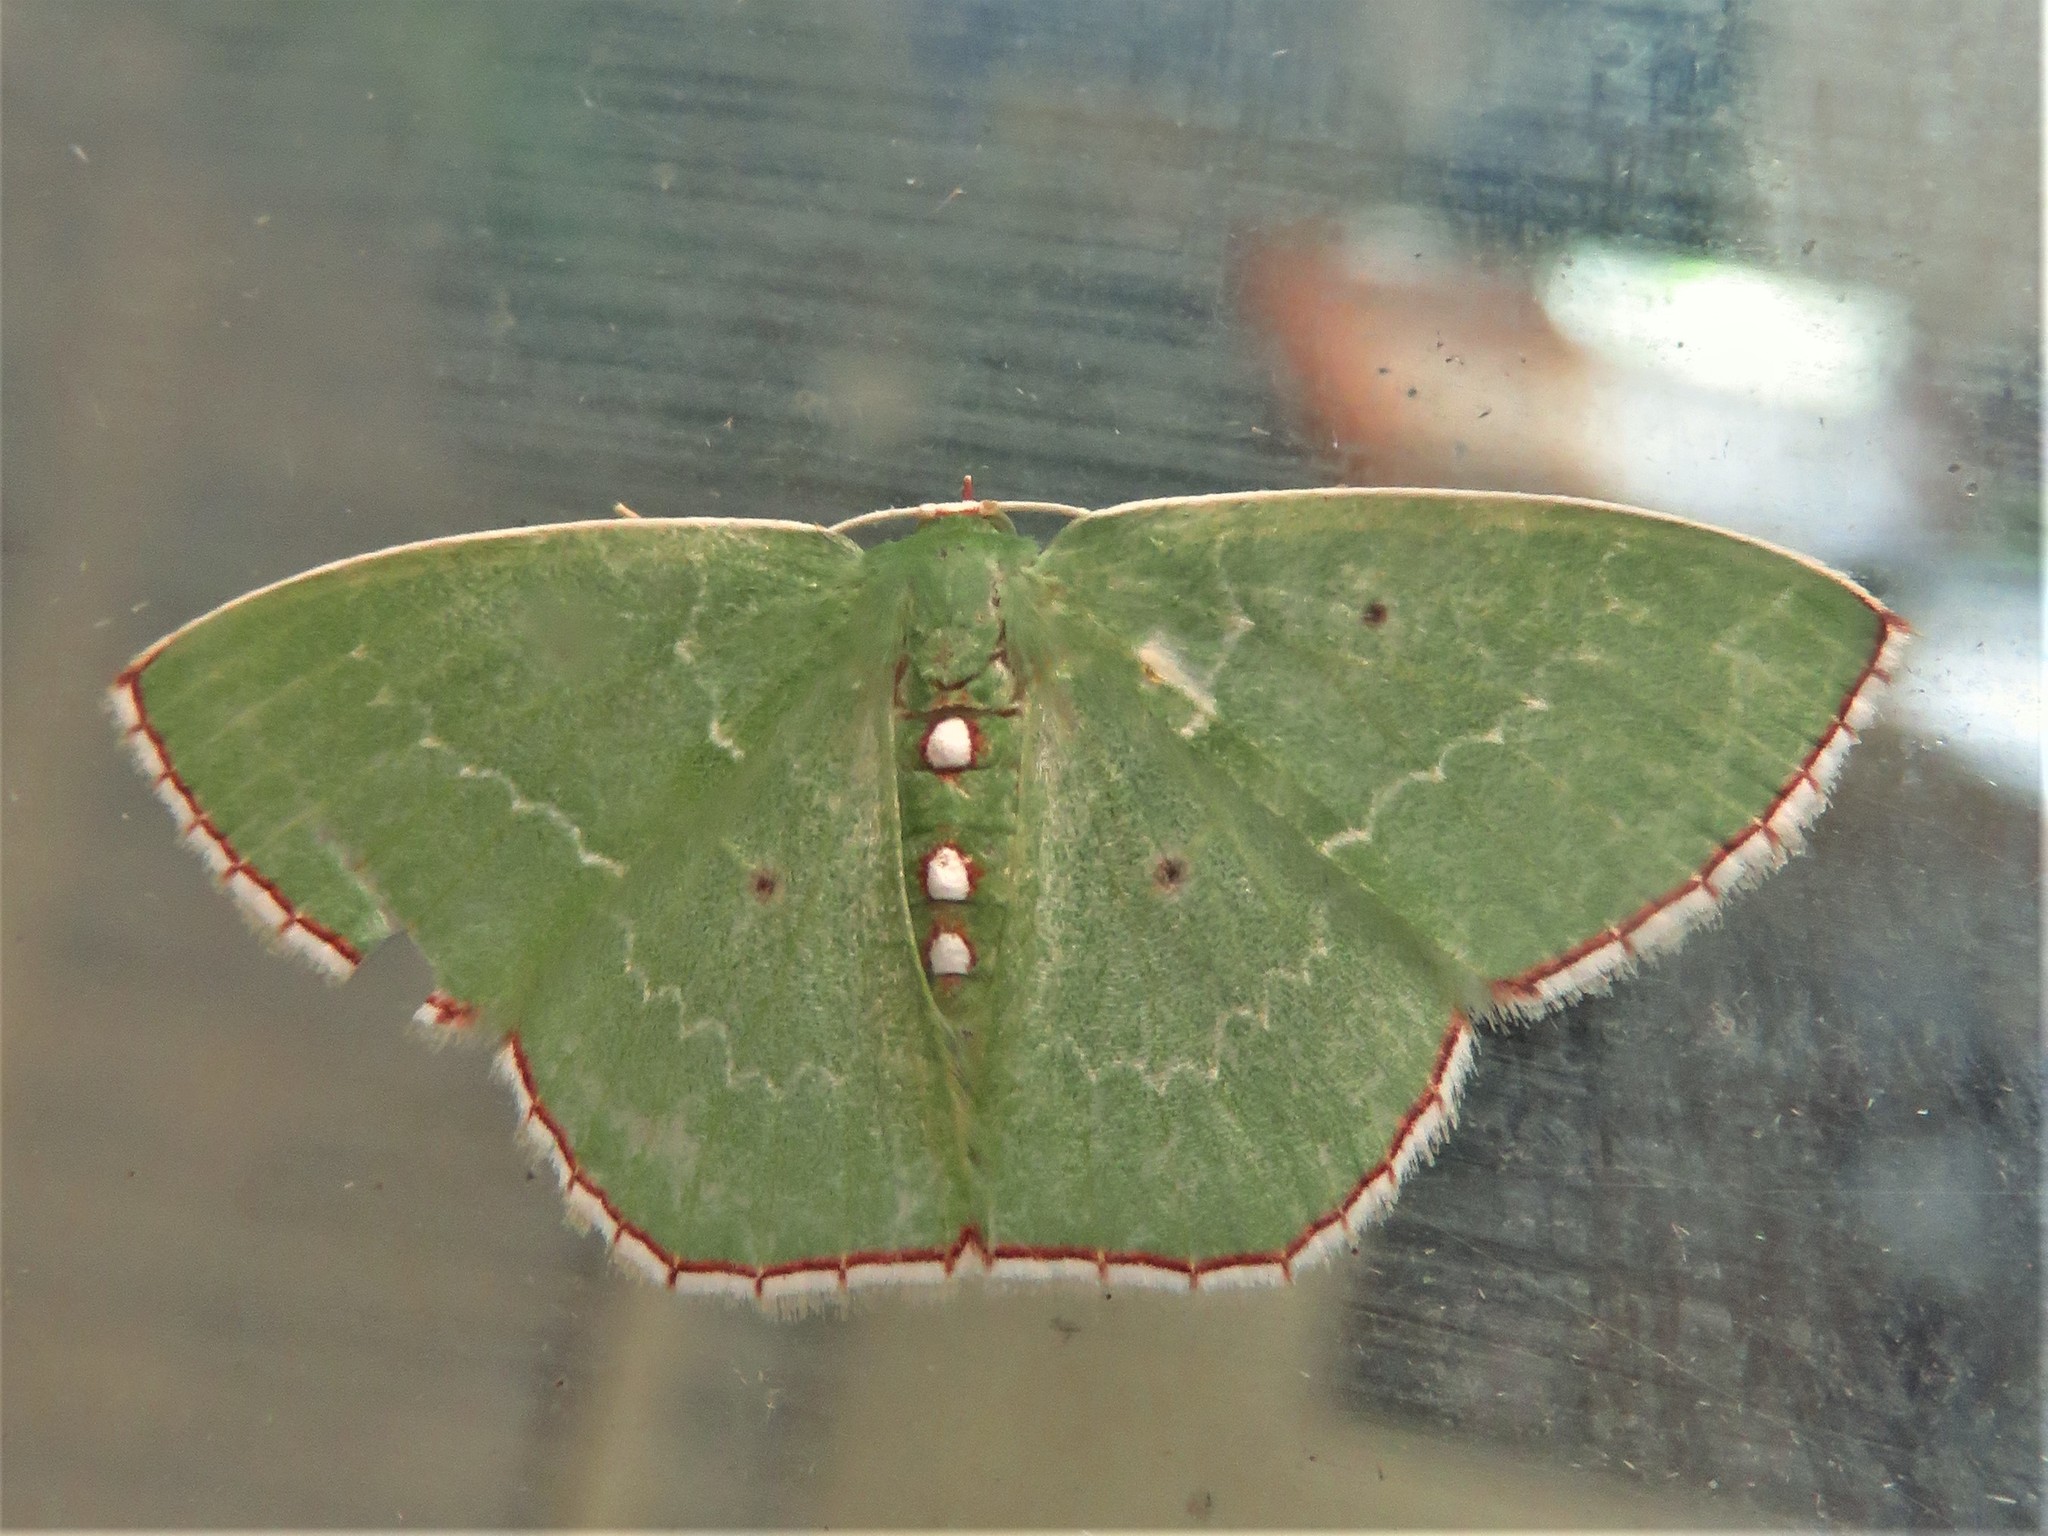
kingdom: Animalia
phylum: Arthropoda
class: Insecta
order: Lepidoptera
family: Geometridae
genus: Nemoria
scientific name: Nemoria lixaria
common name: Red-bordered emerald
